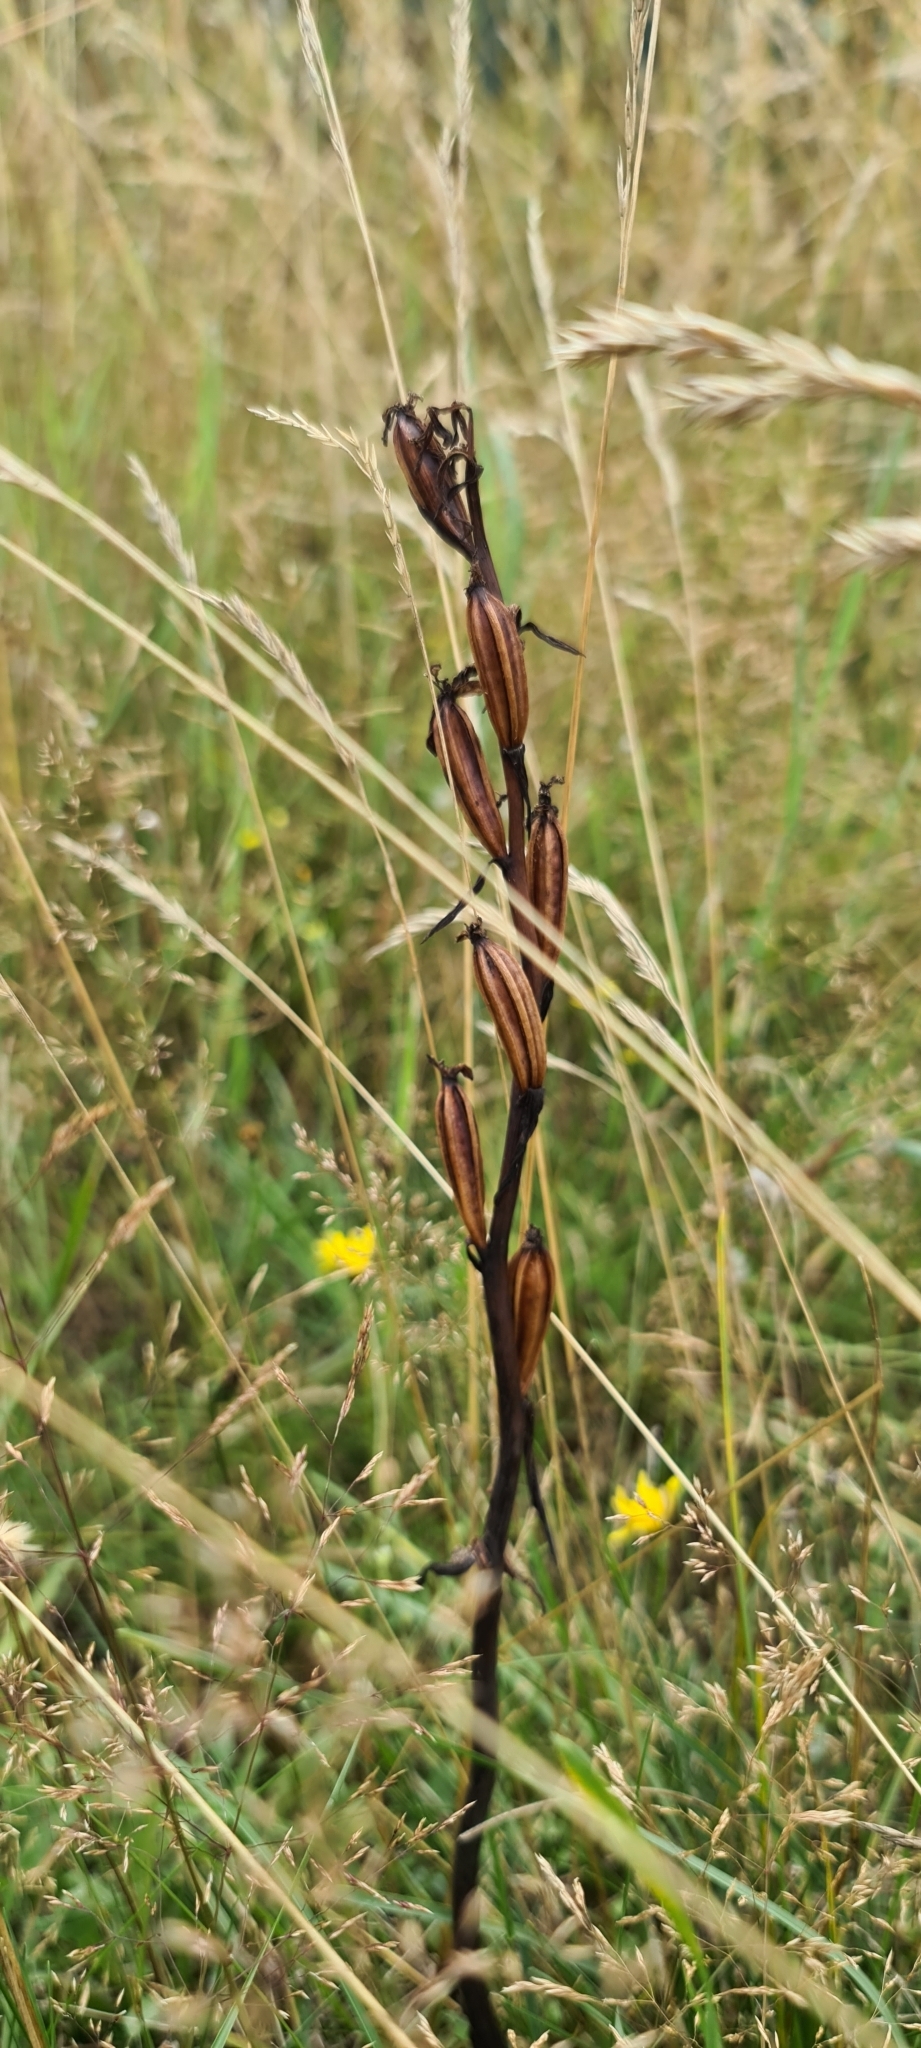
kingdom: Plantae
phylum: Tracheophyta
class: Liliopsida
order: Asparagales
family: Orchidaceae
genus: Ophrys
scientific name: Ophrys apifera
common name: Bee orchid
